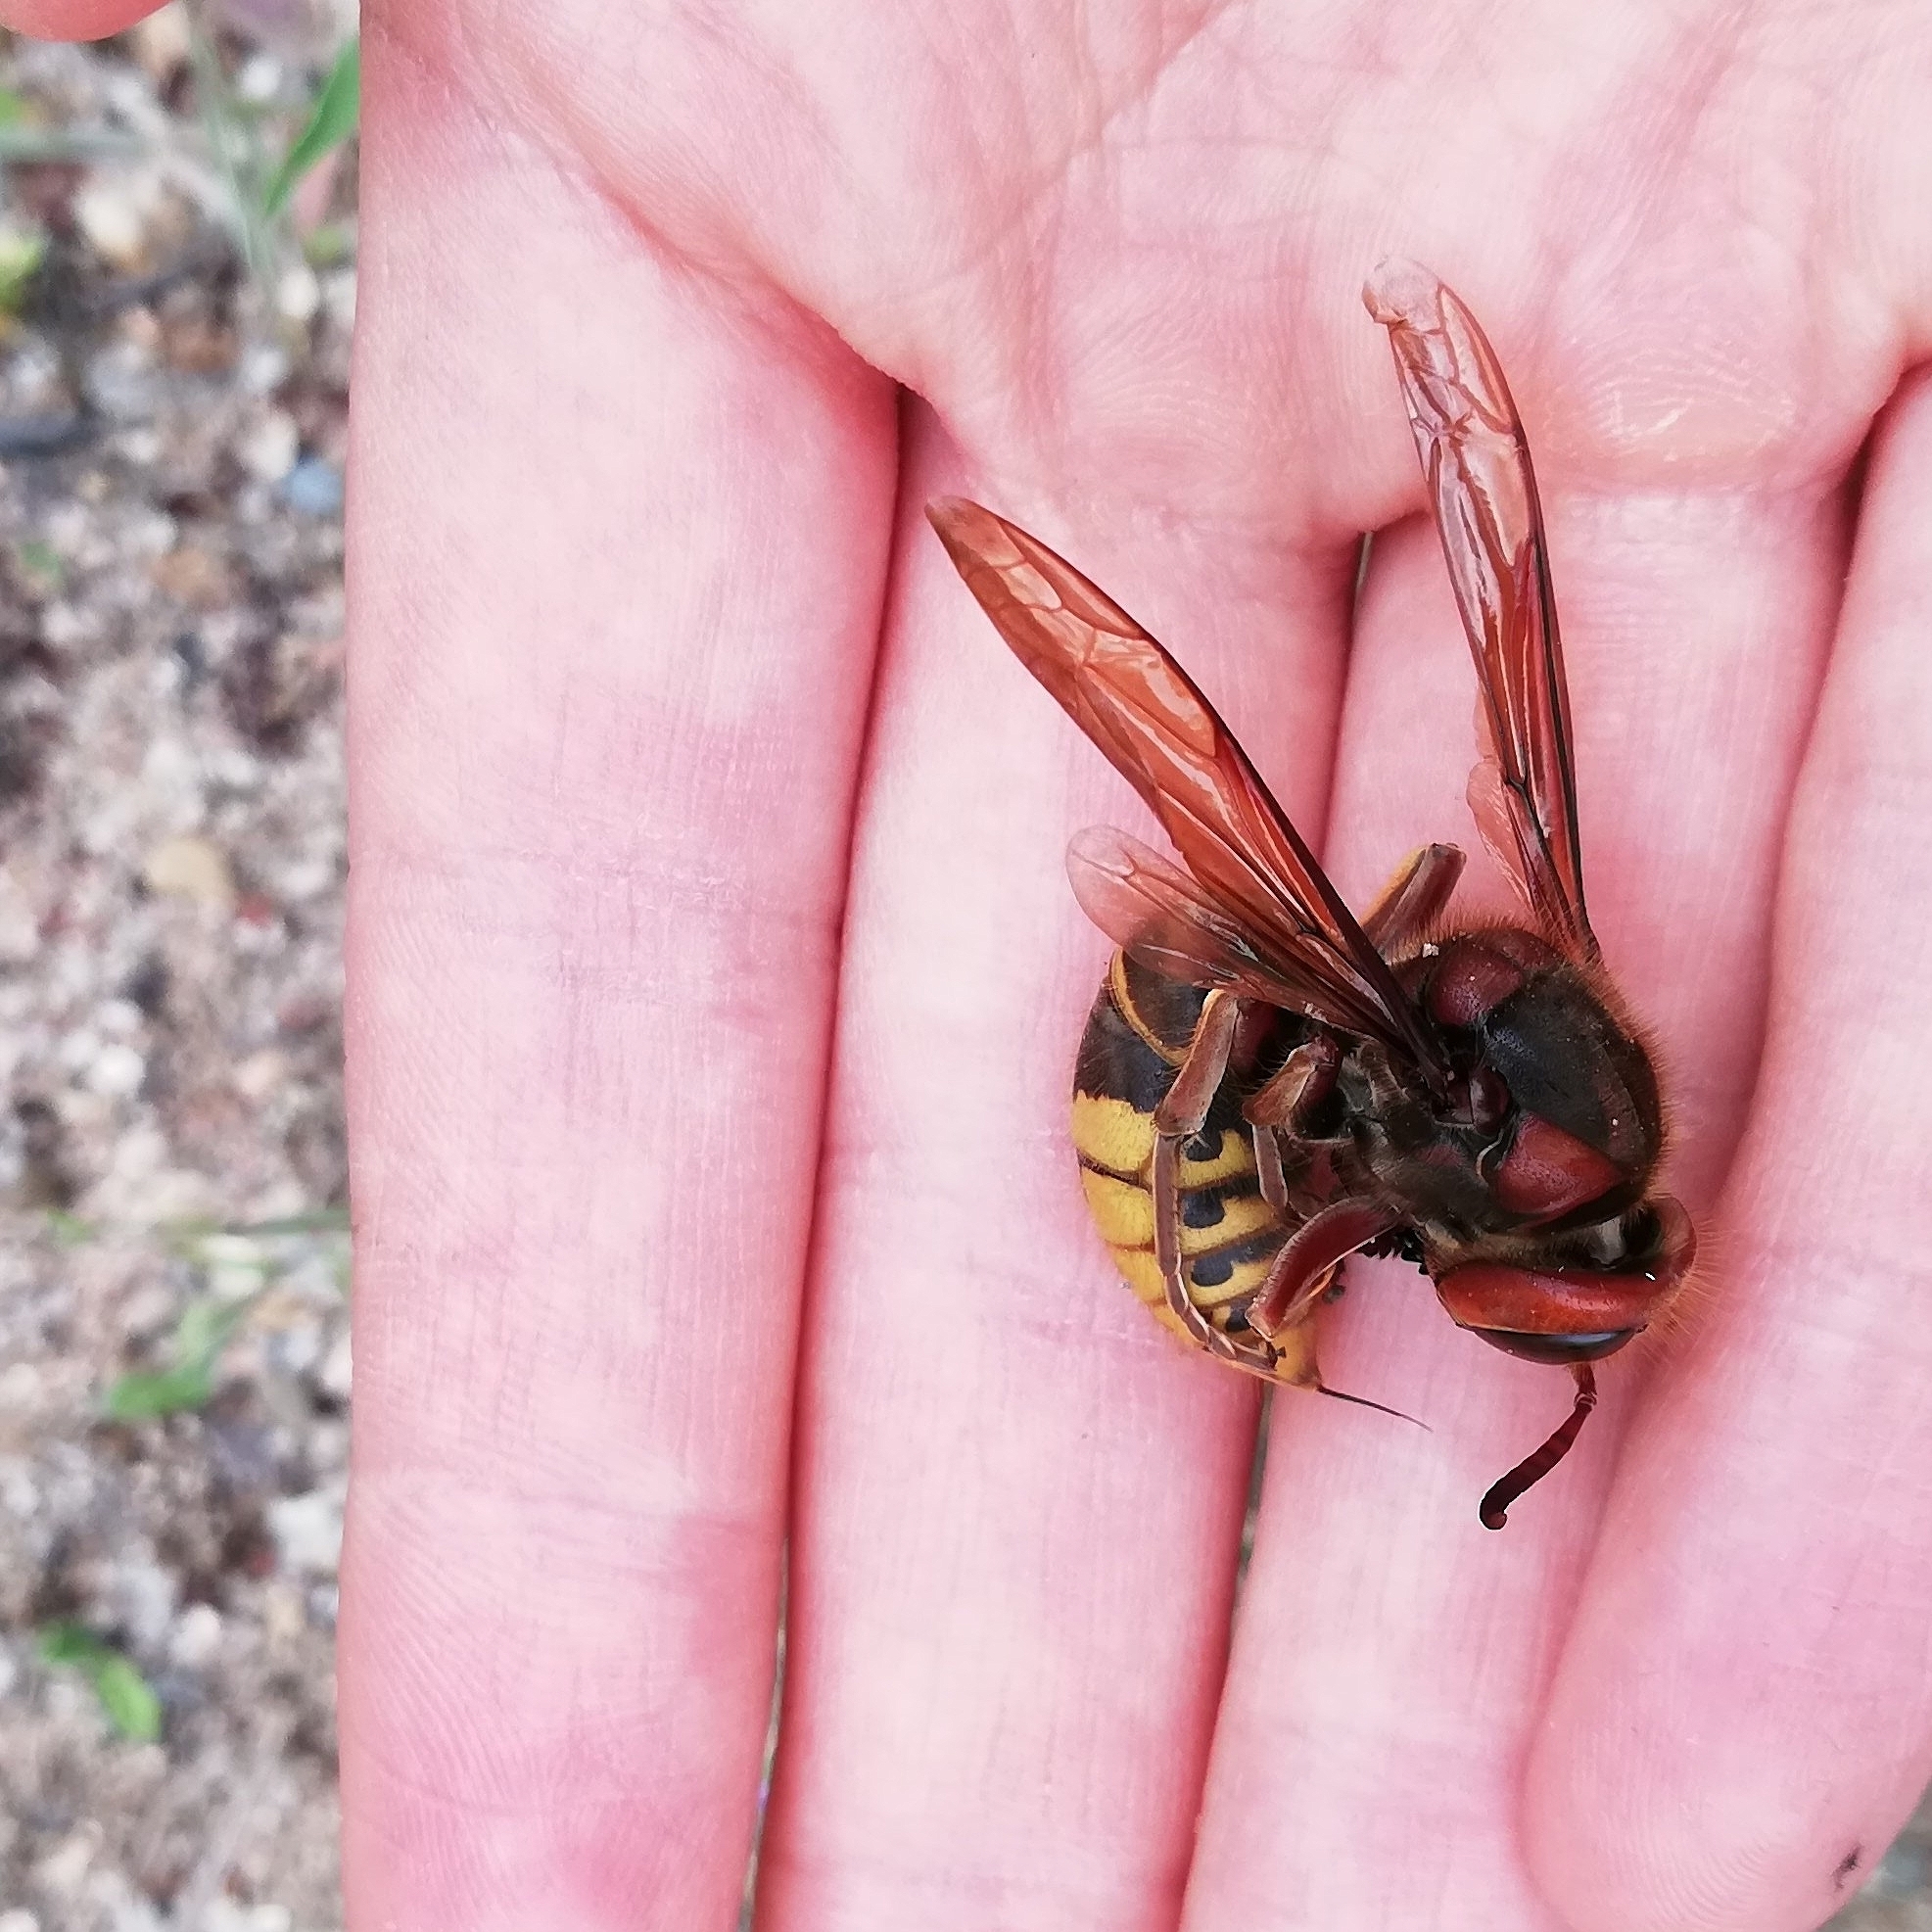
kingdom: Animalia
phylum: Arthropoda
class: Insecta
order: Hymenoptera
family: Vespidae
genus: Vespa
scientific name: Vespa crabro
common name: Hornet
